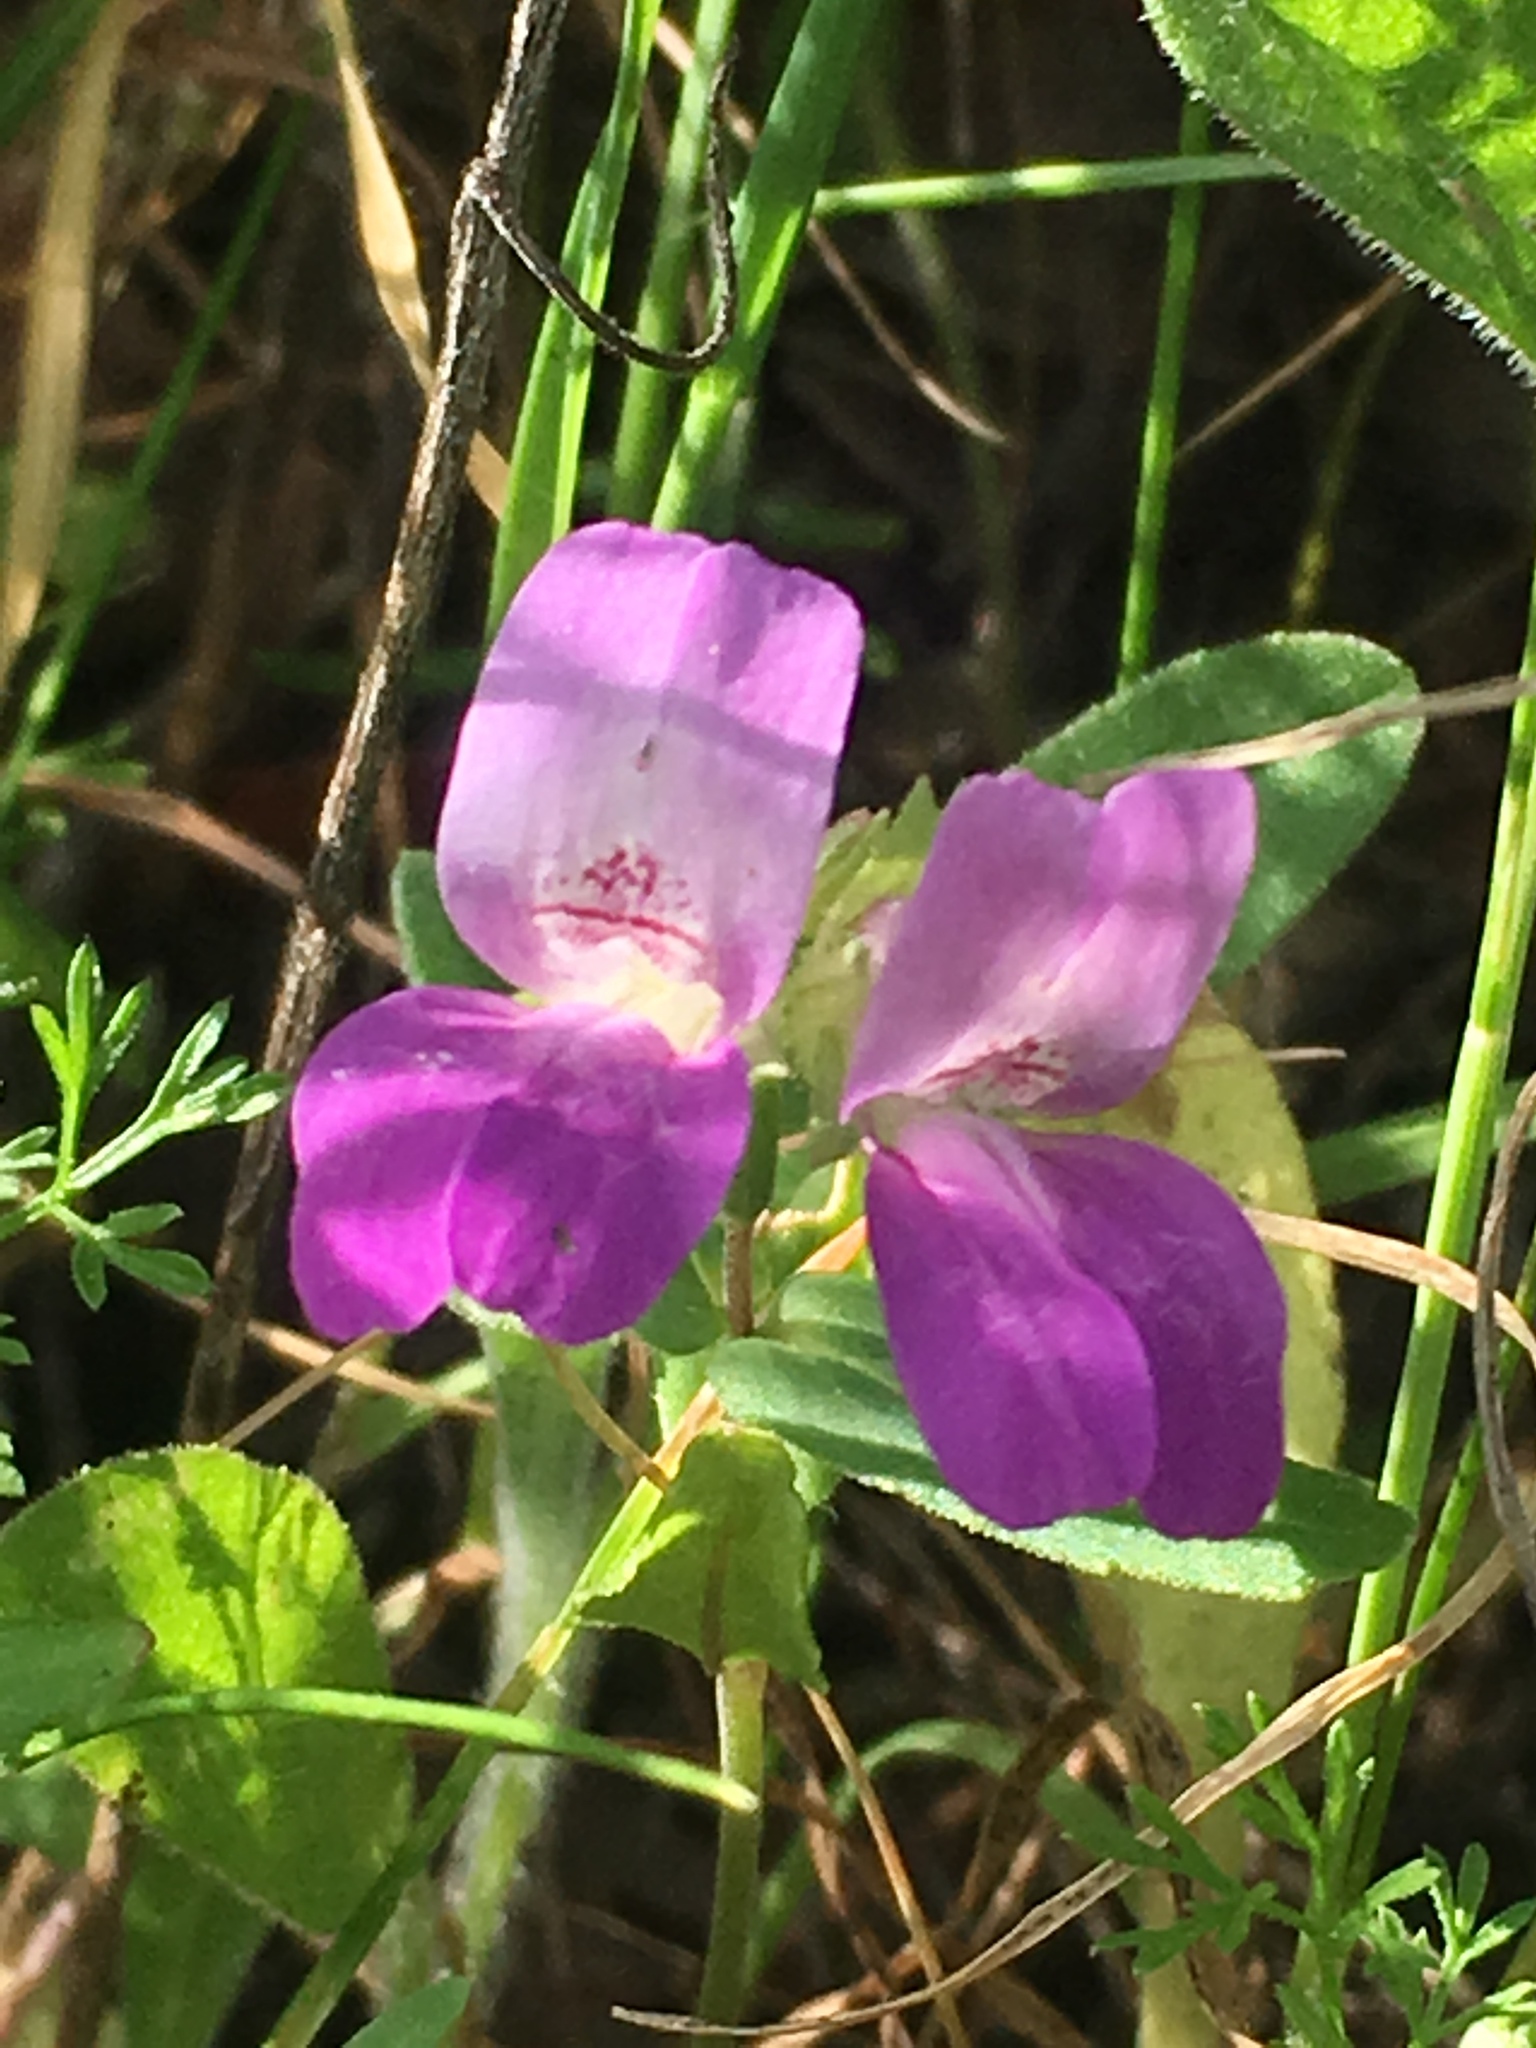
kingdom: Plantae
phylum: Tracheophyta
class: Magnoliopsida
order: Lamiales
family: Plantaginaceae
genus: Collinsia
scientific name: Collinsia heterophylla
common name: Chinese-houses
